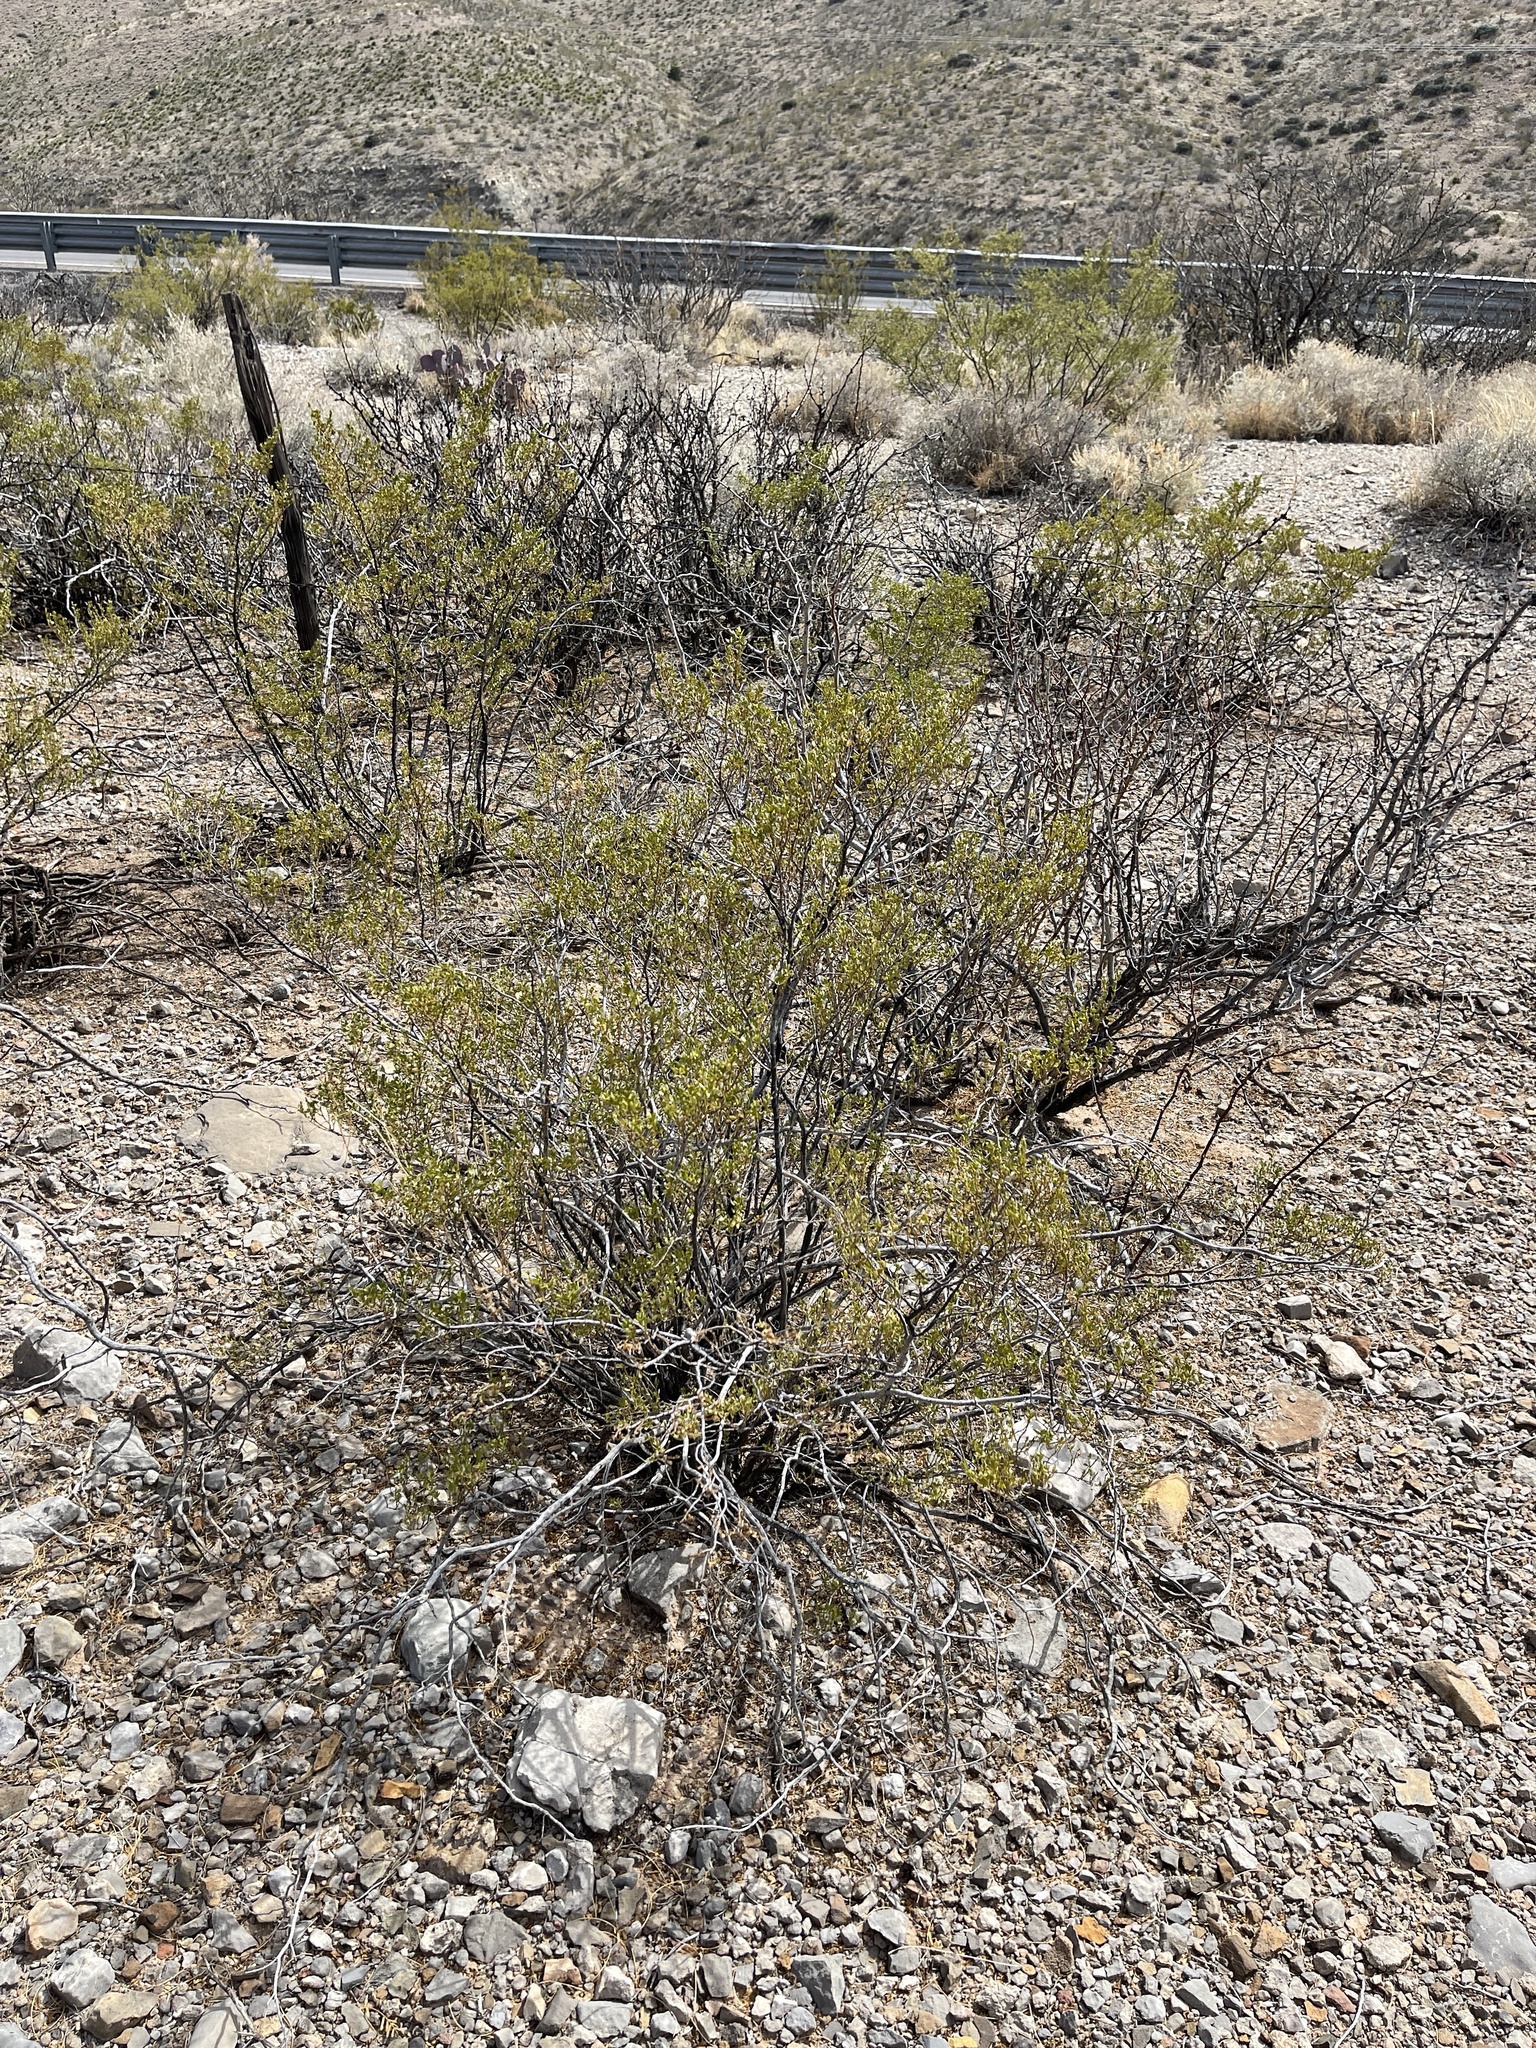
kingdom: Plantae
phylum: Tracheophyta
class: Magnoliopsida
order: Zygophyllales
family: Zygophyllaceae
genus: Larrea
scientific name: Larrea tridentata
